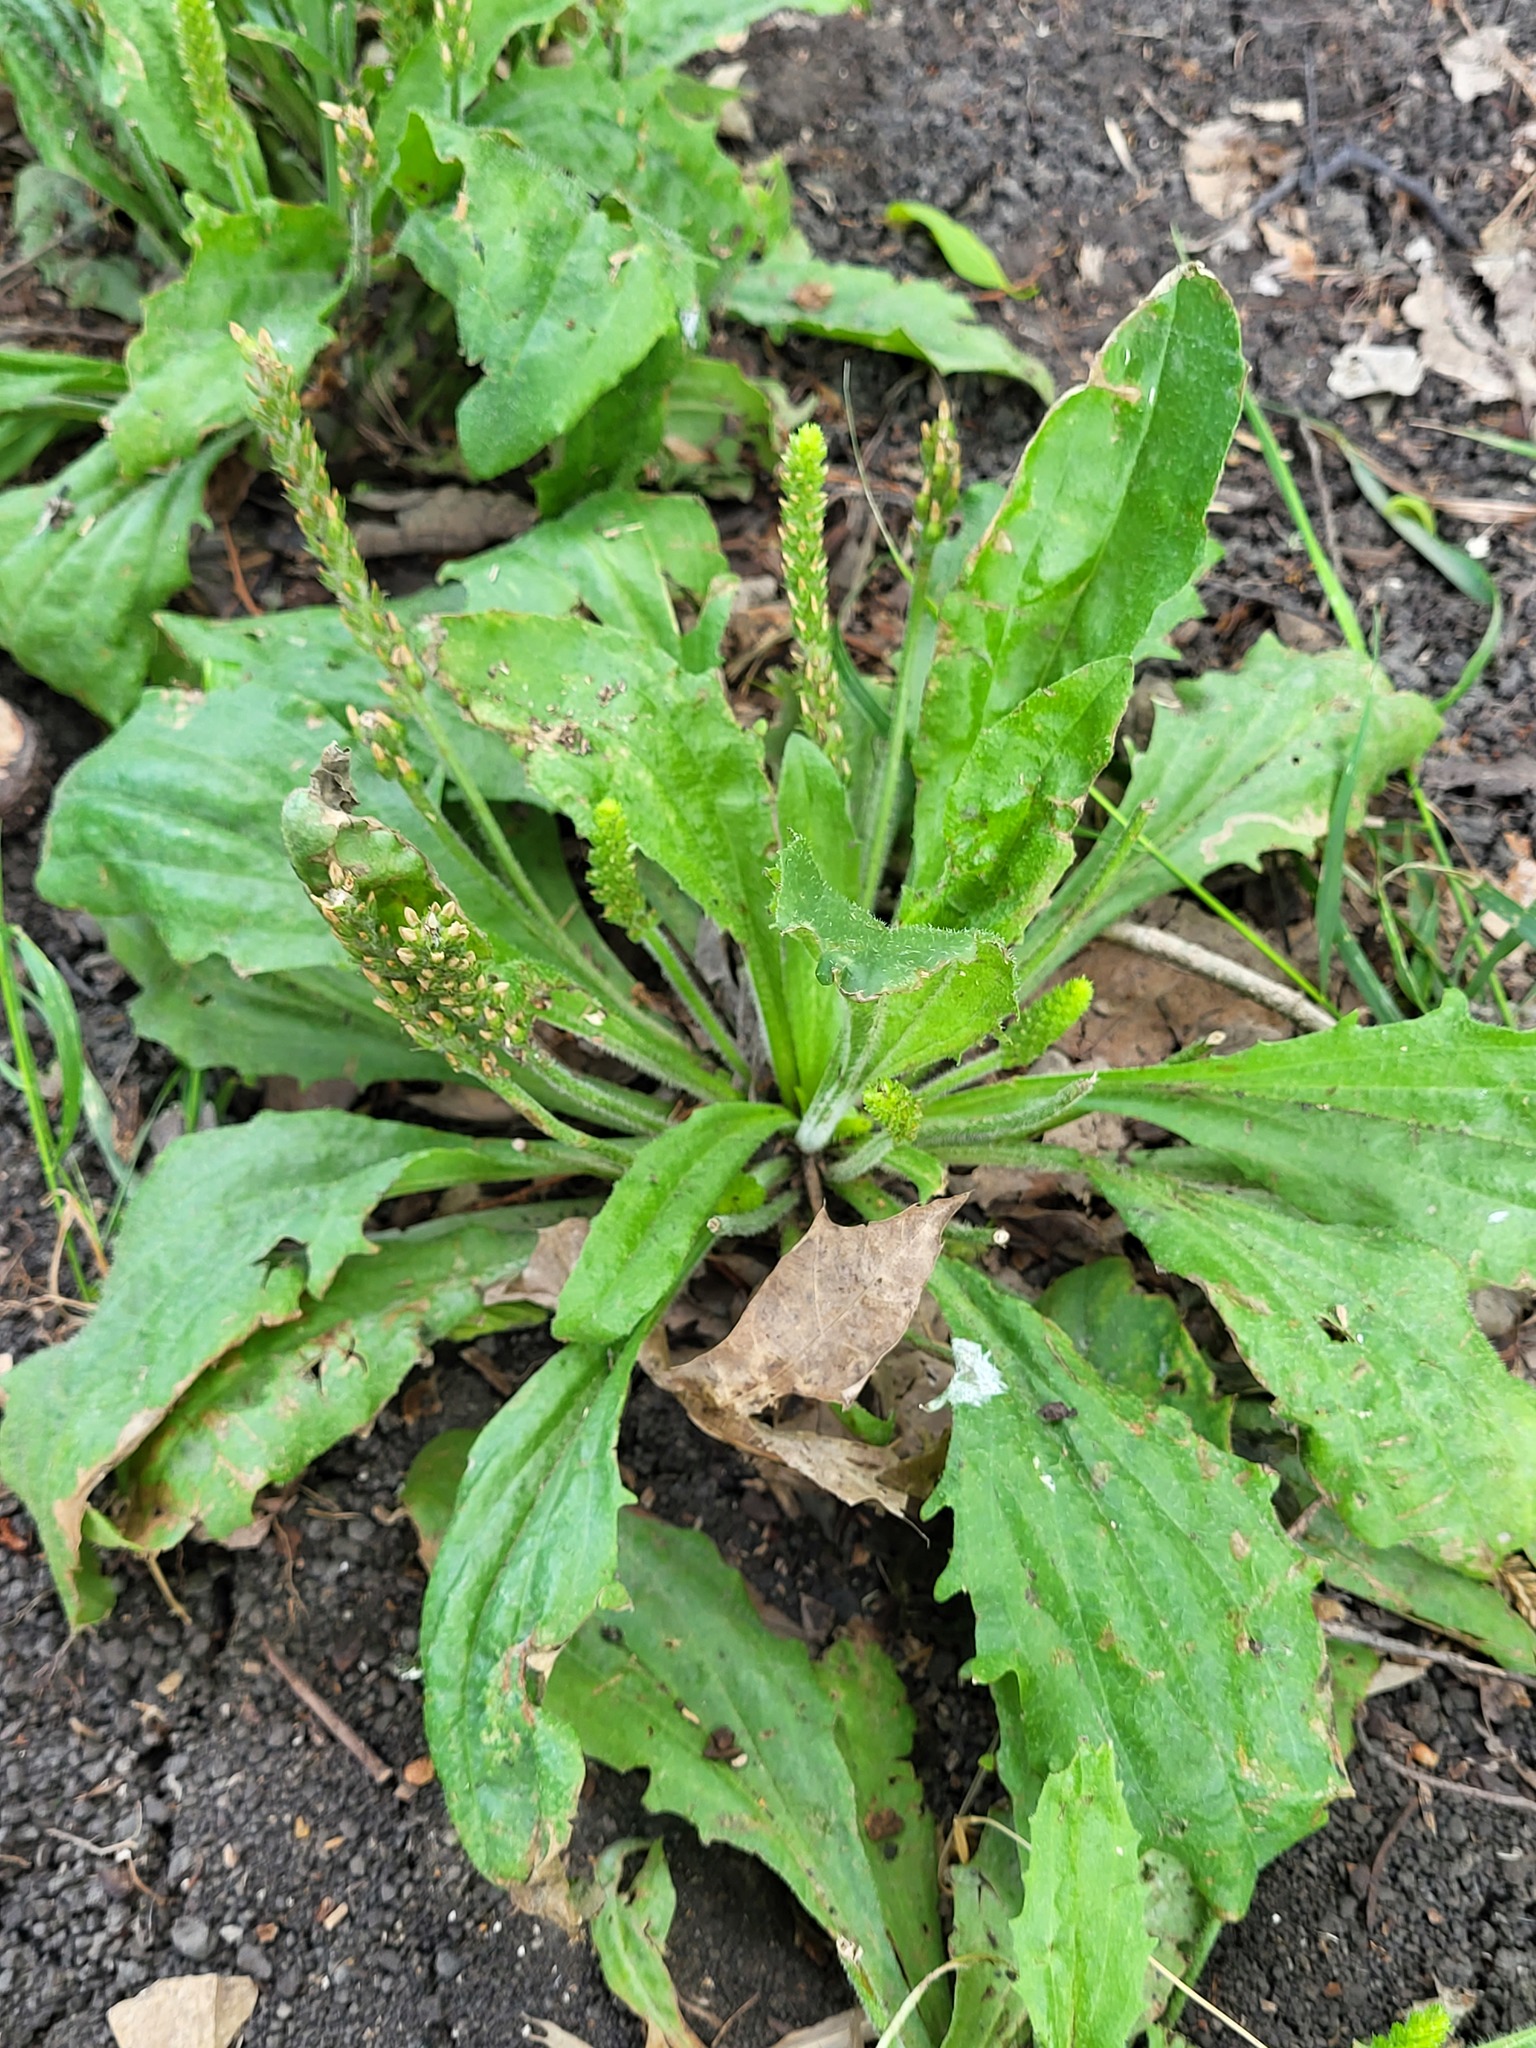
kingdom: Plantae
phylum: Tracheophyta
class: Magnoliopsida
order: Lamiales
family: Plantaginaceae
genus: Plantago
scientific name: Plantago rhodosperma
